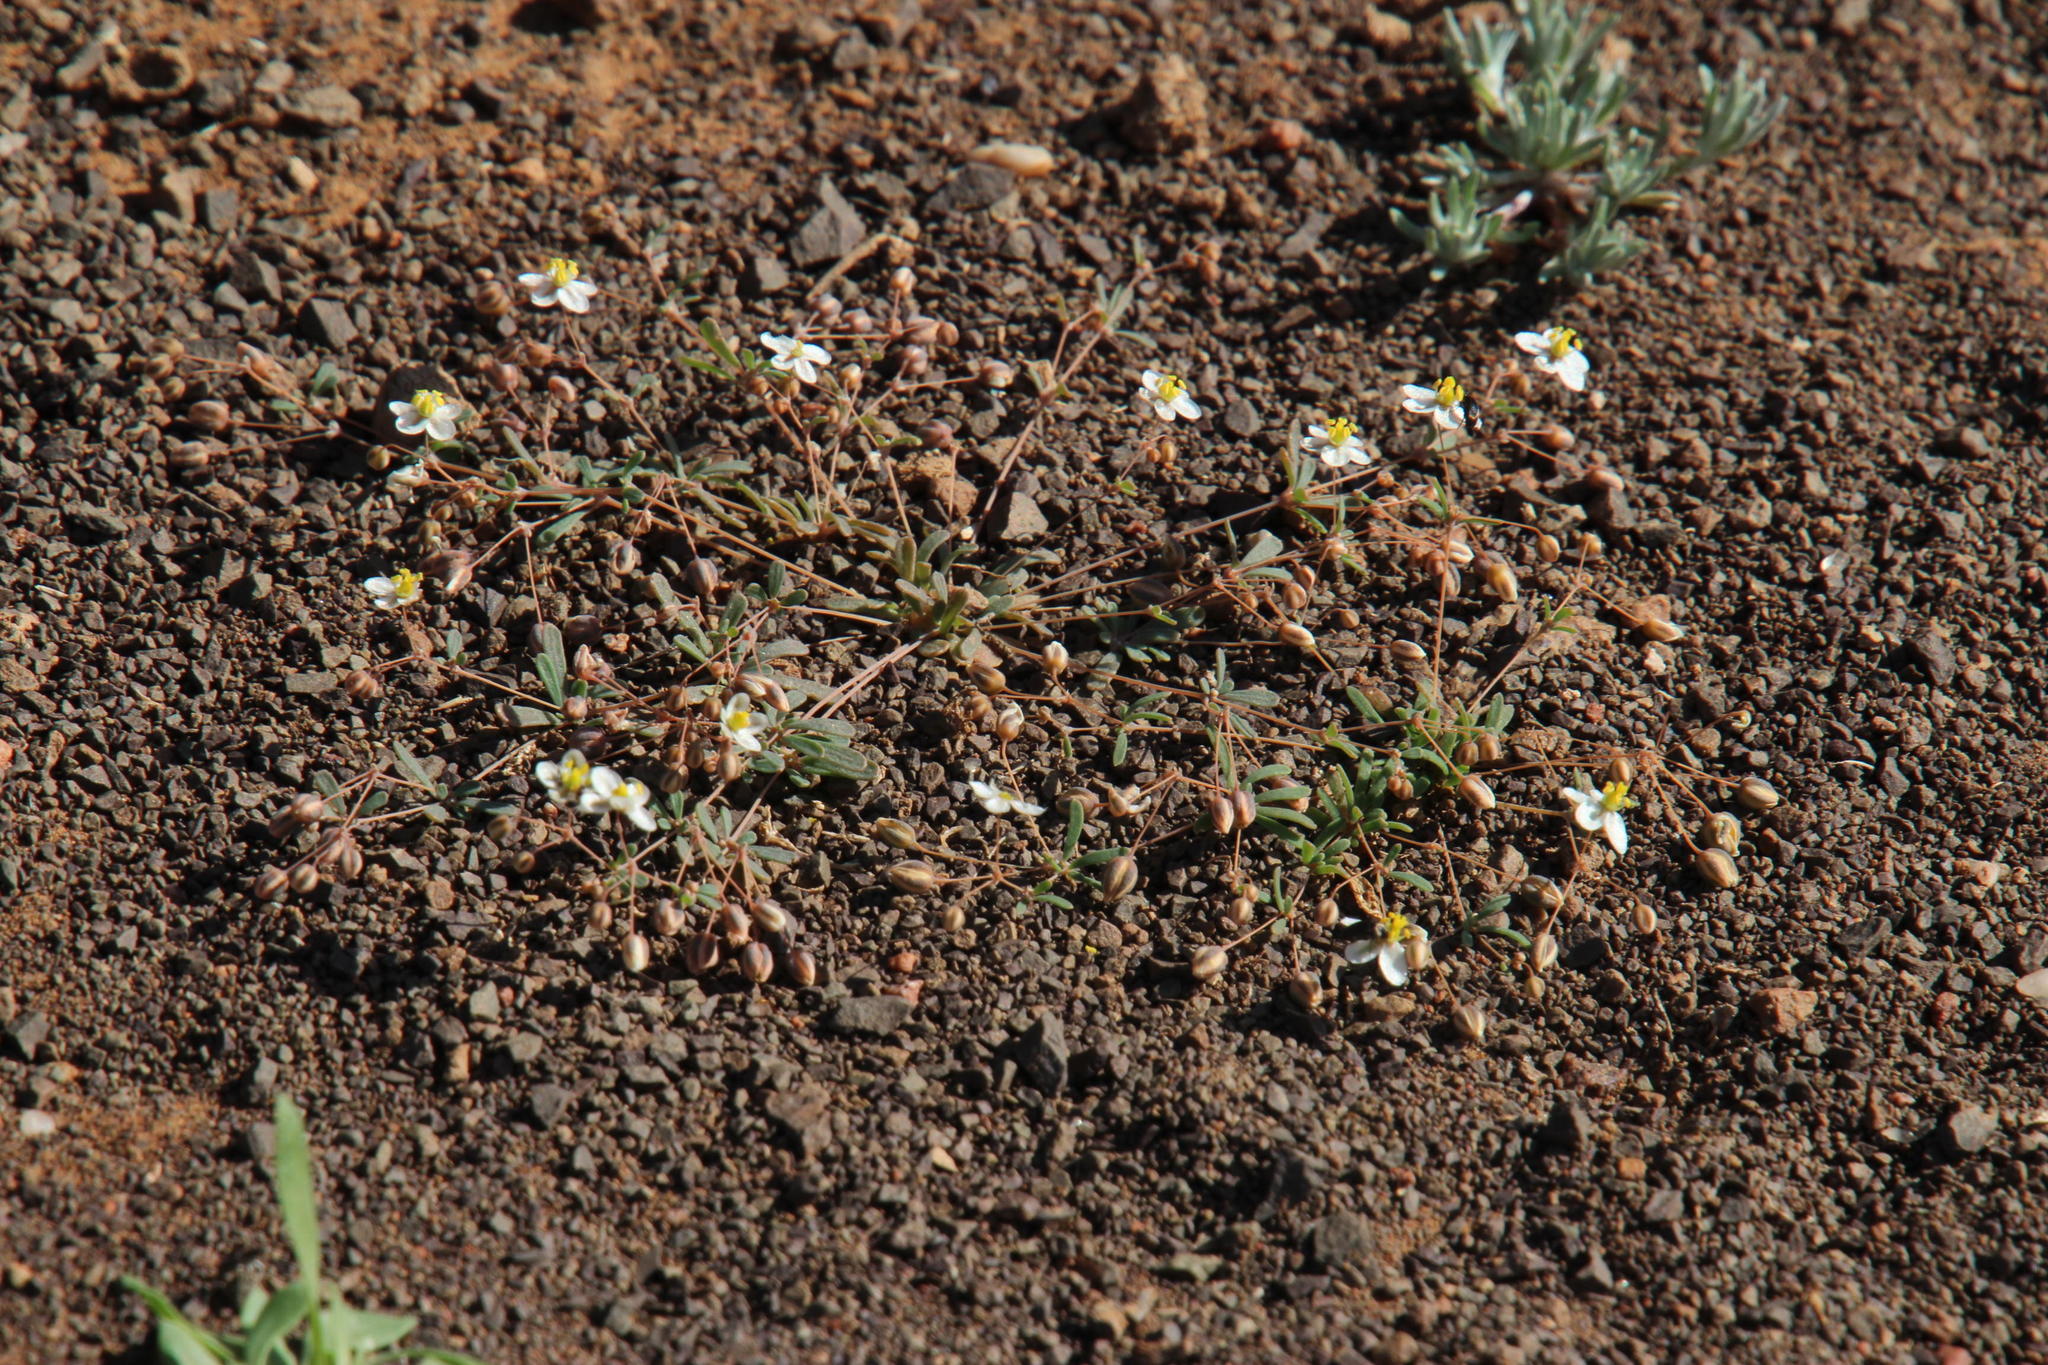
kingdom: Plantae
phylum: Tracheophyta
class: Magnoliopsida
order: Caryophyllales
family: Molluginaceae
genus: Hypertelis
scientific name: Hypertelis umbellata
